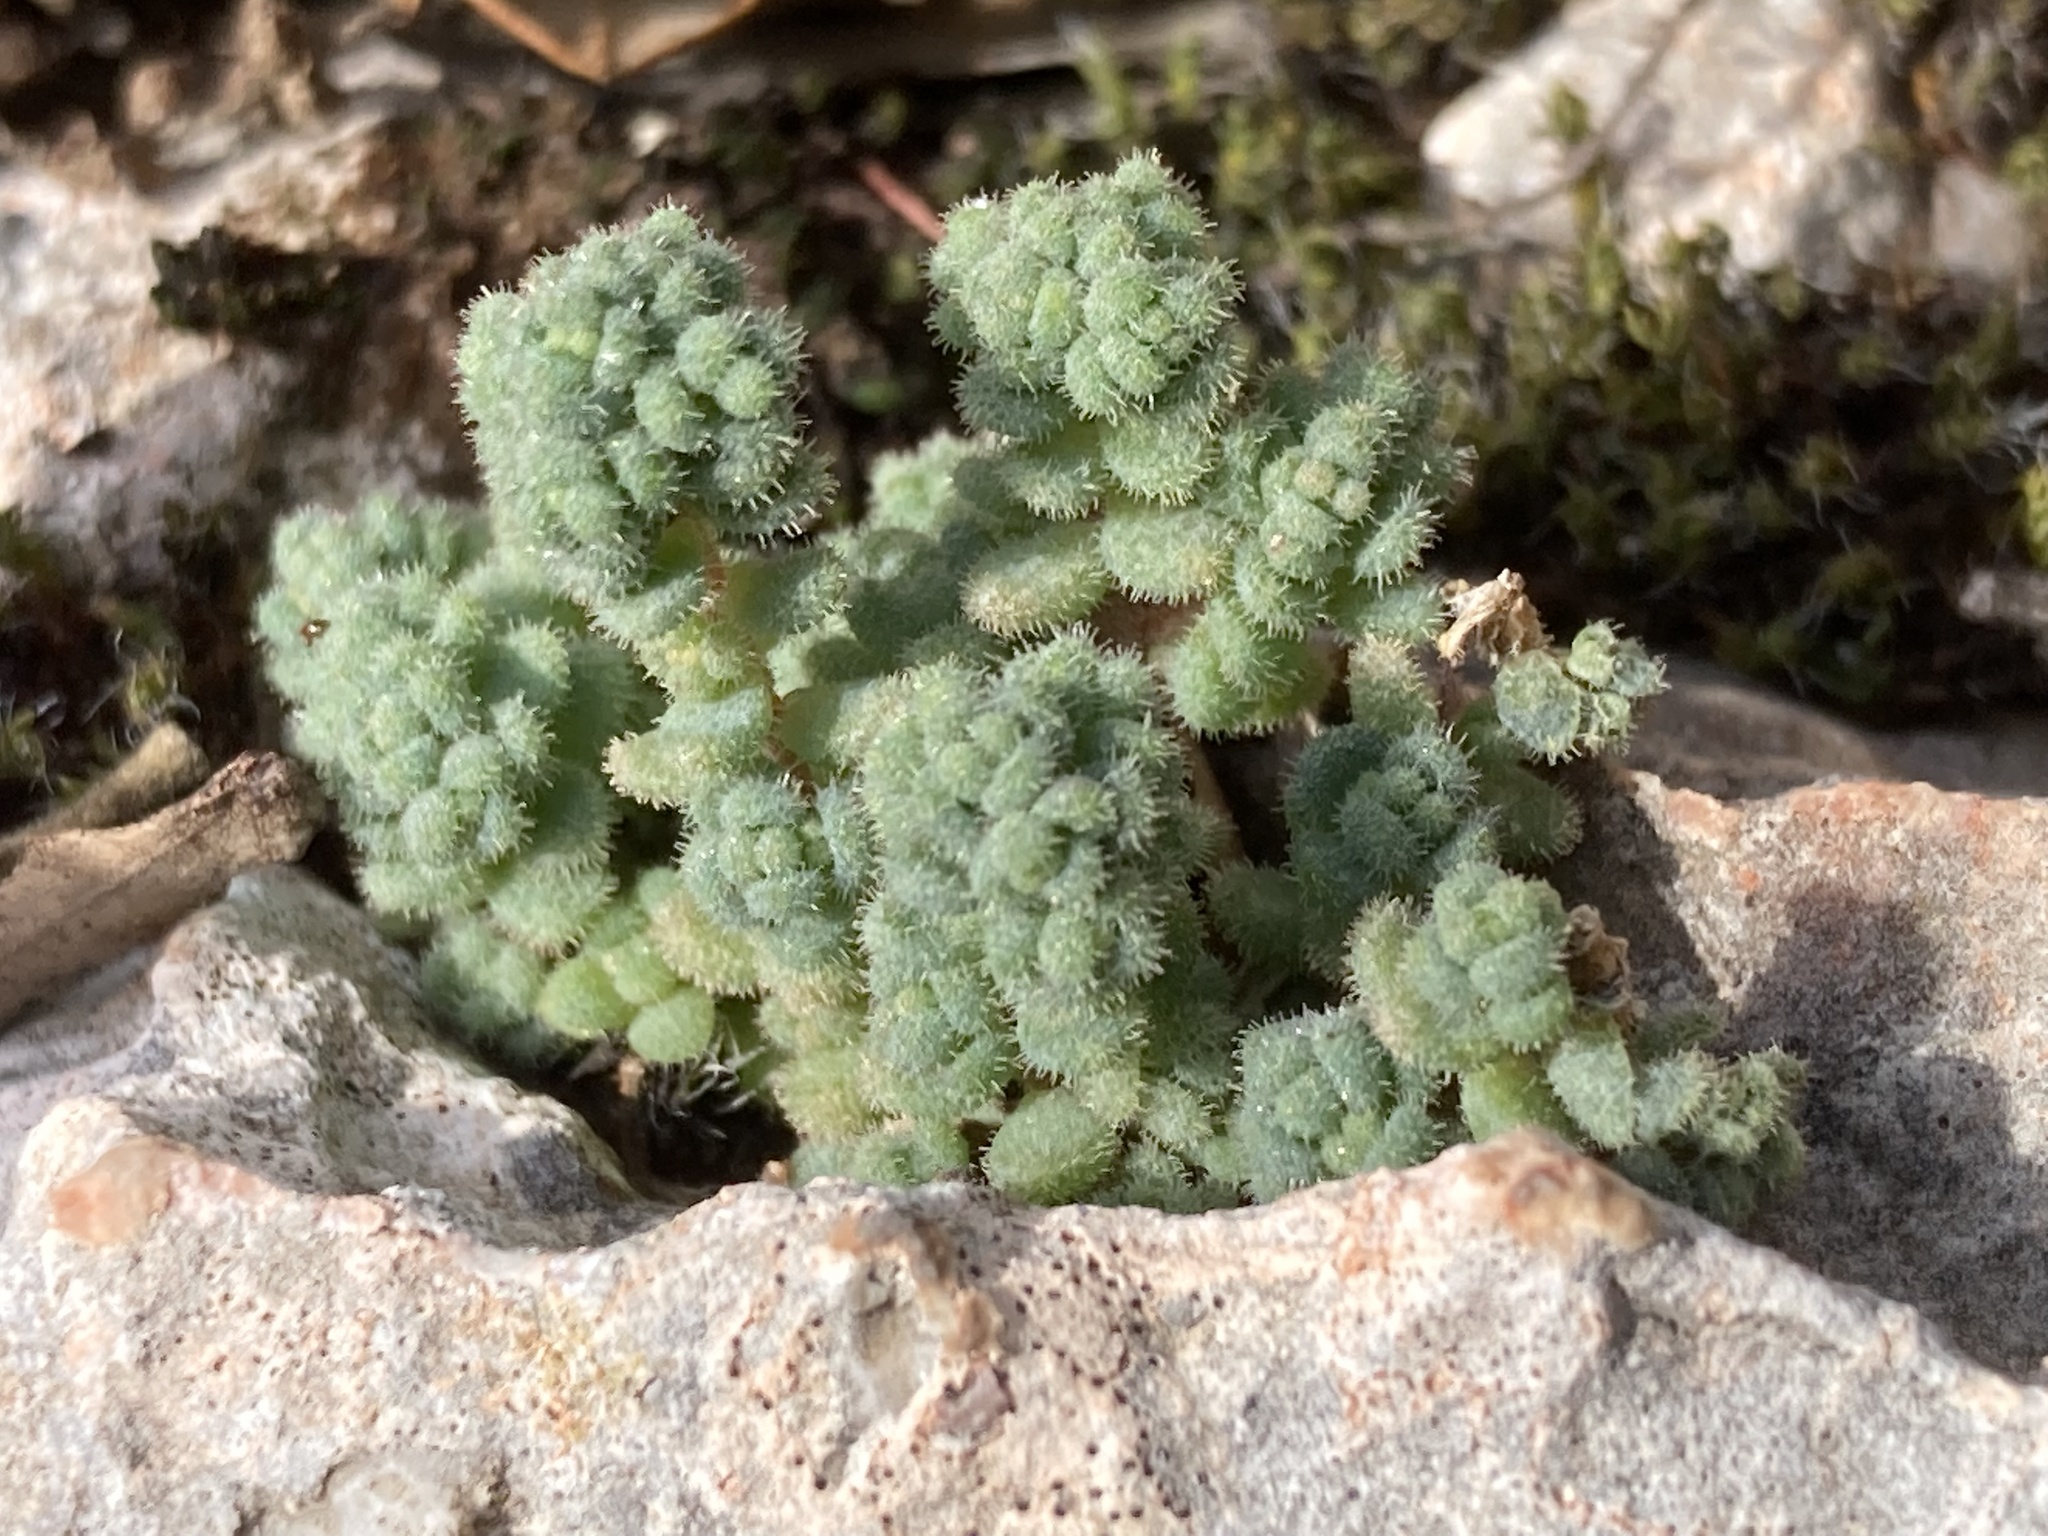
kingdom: Plantae
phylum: Tracheophyta
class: Magnoliopsida
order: Saxifragales
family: Crassulaceae
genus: Sedum
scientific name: Sedum dasyphyllum
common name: Thick-leaf stonecrop
